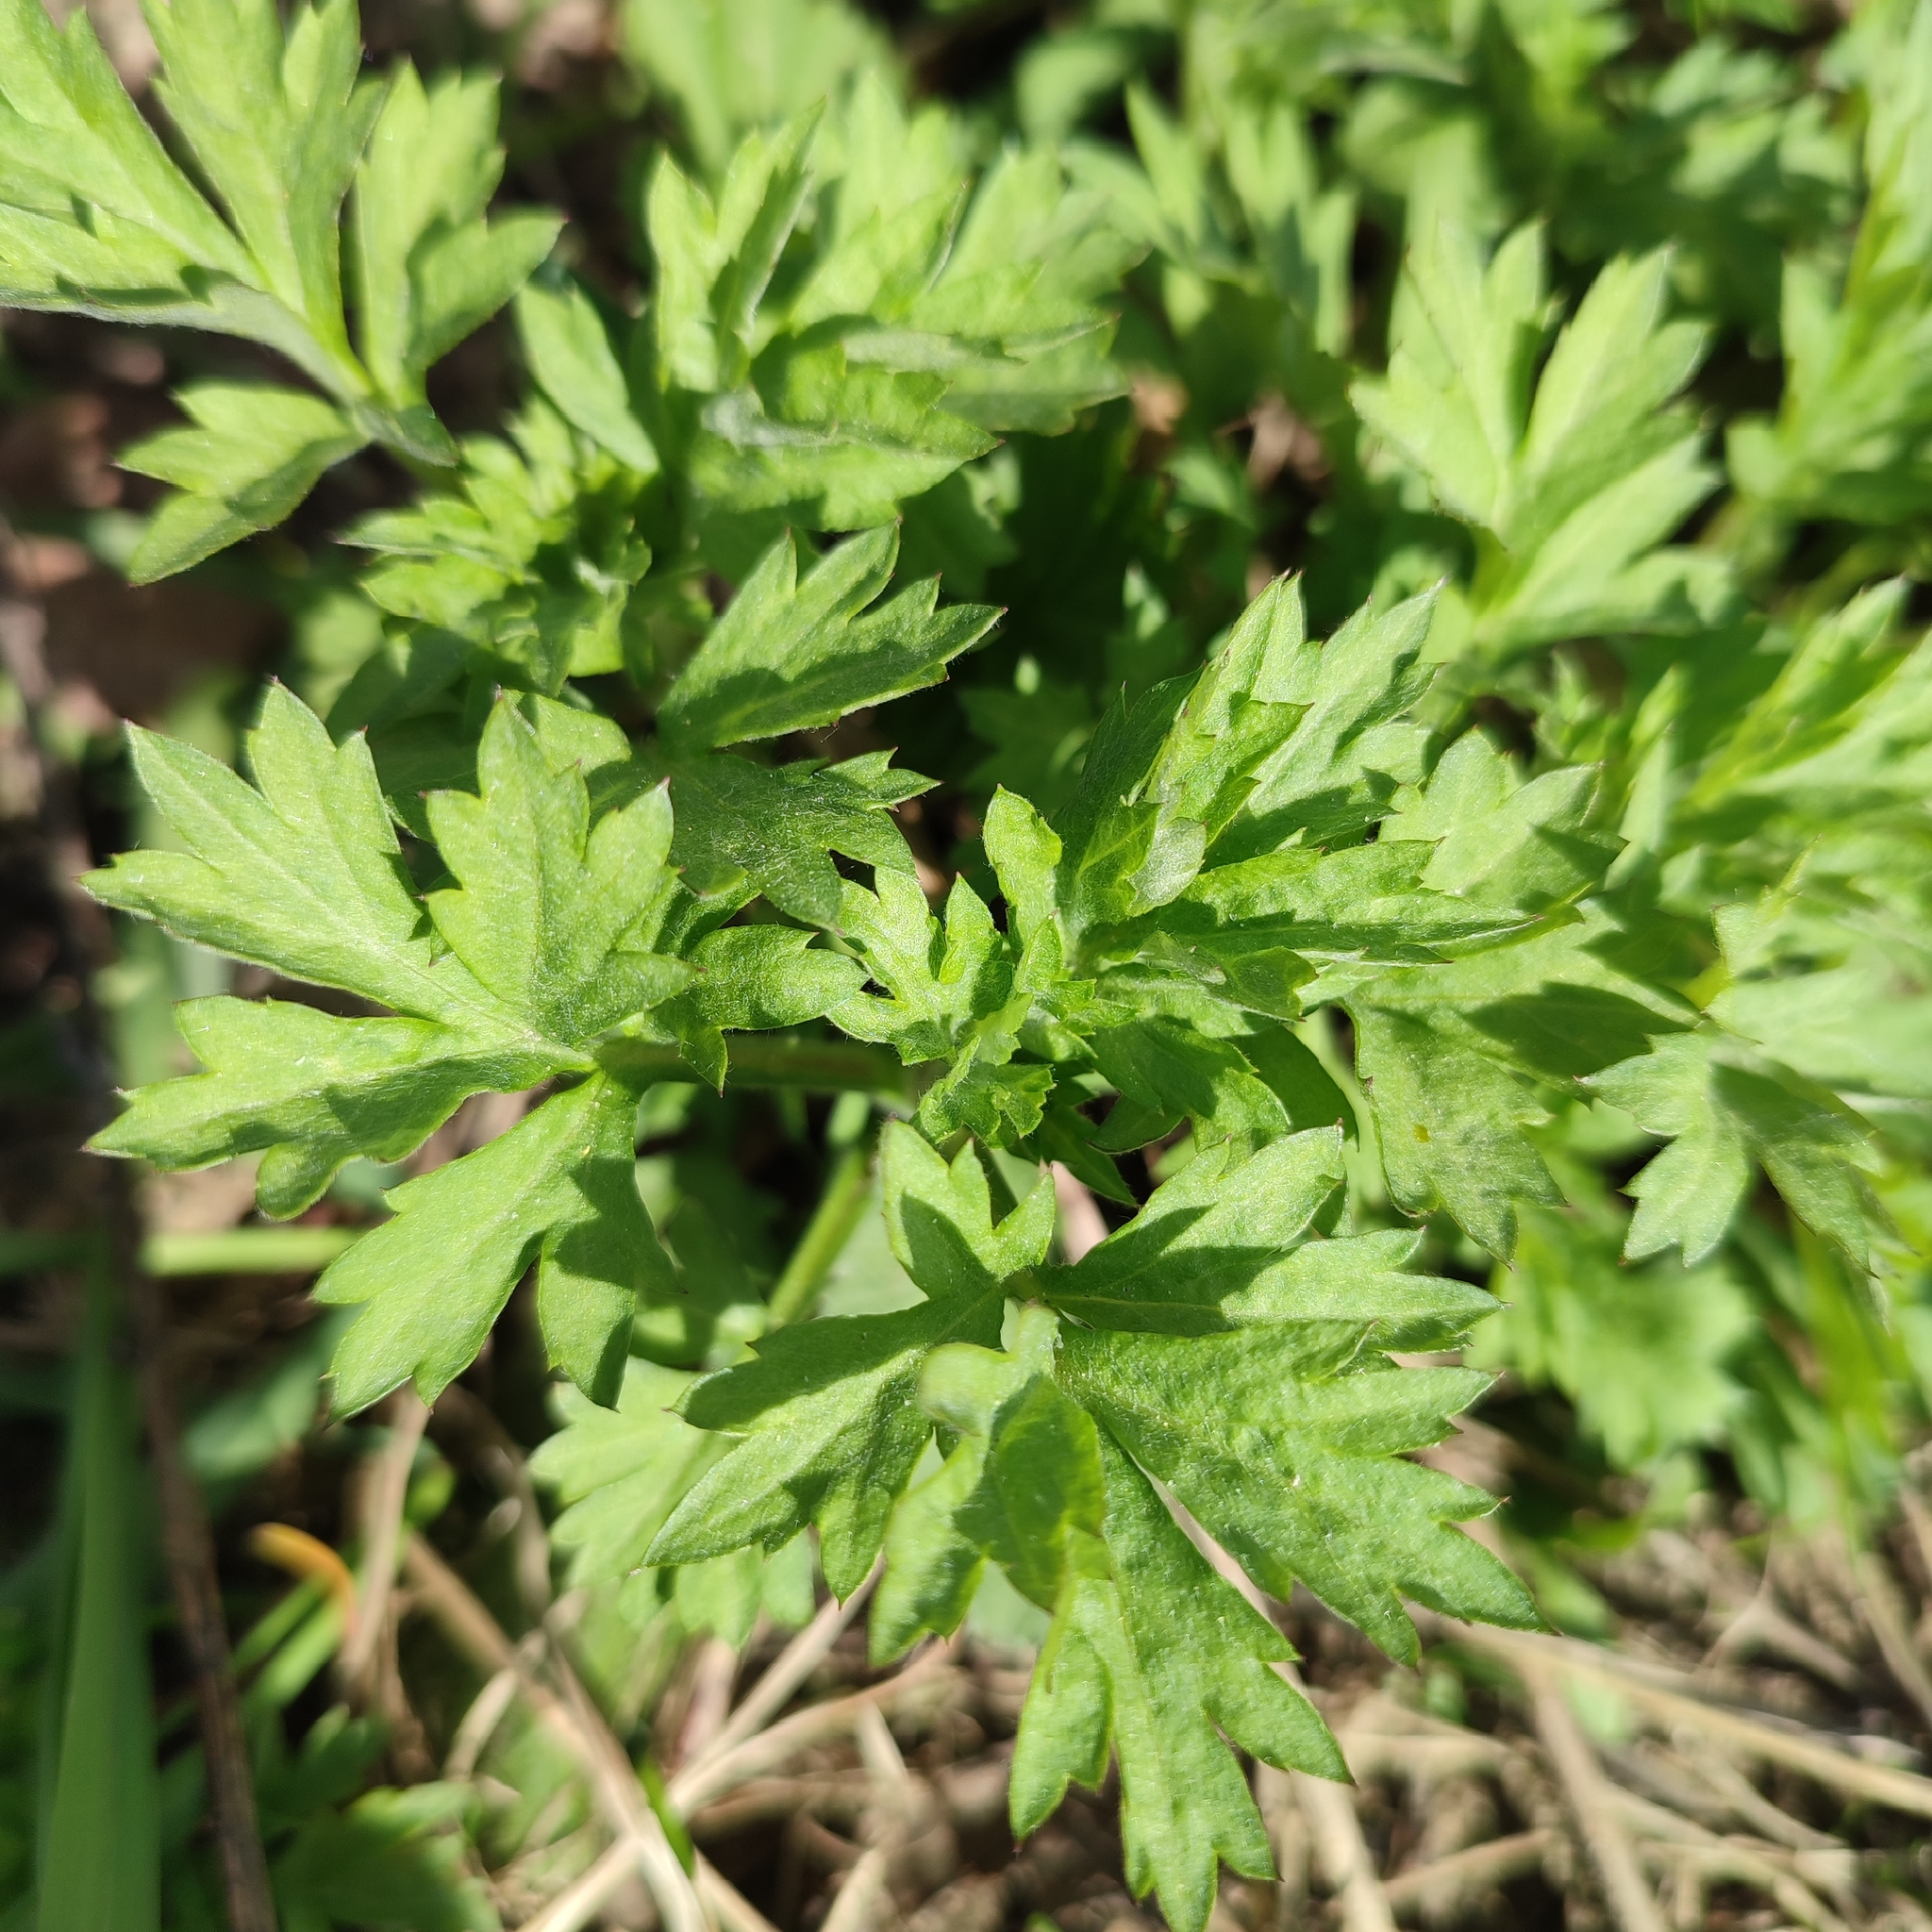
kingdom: Plantae
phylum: Tracheophyta
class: Magnoliopsida
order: Asterales
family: Asteraceae
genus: Artemisia
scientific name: Artemisia vulgaris
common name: Mugwort
